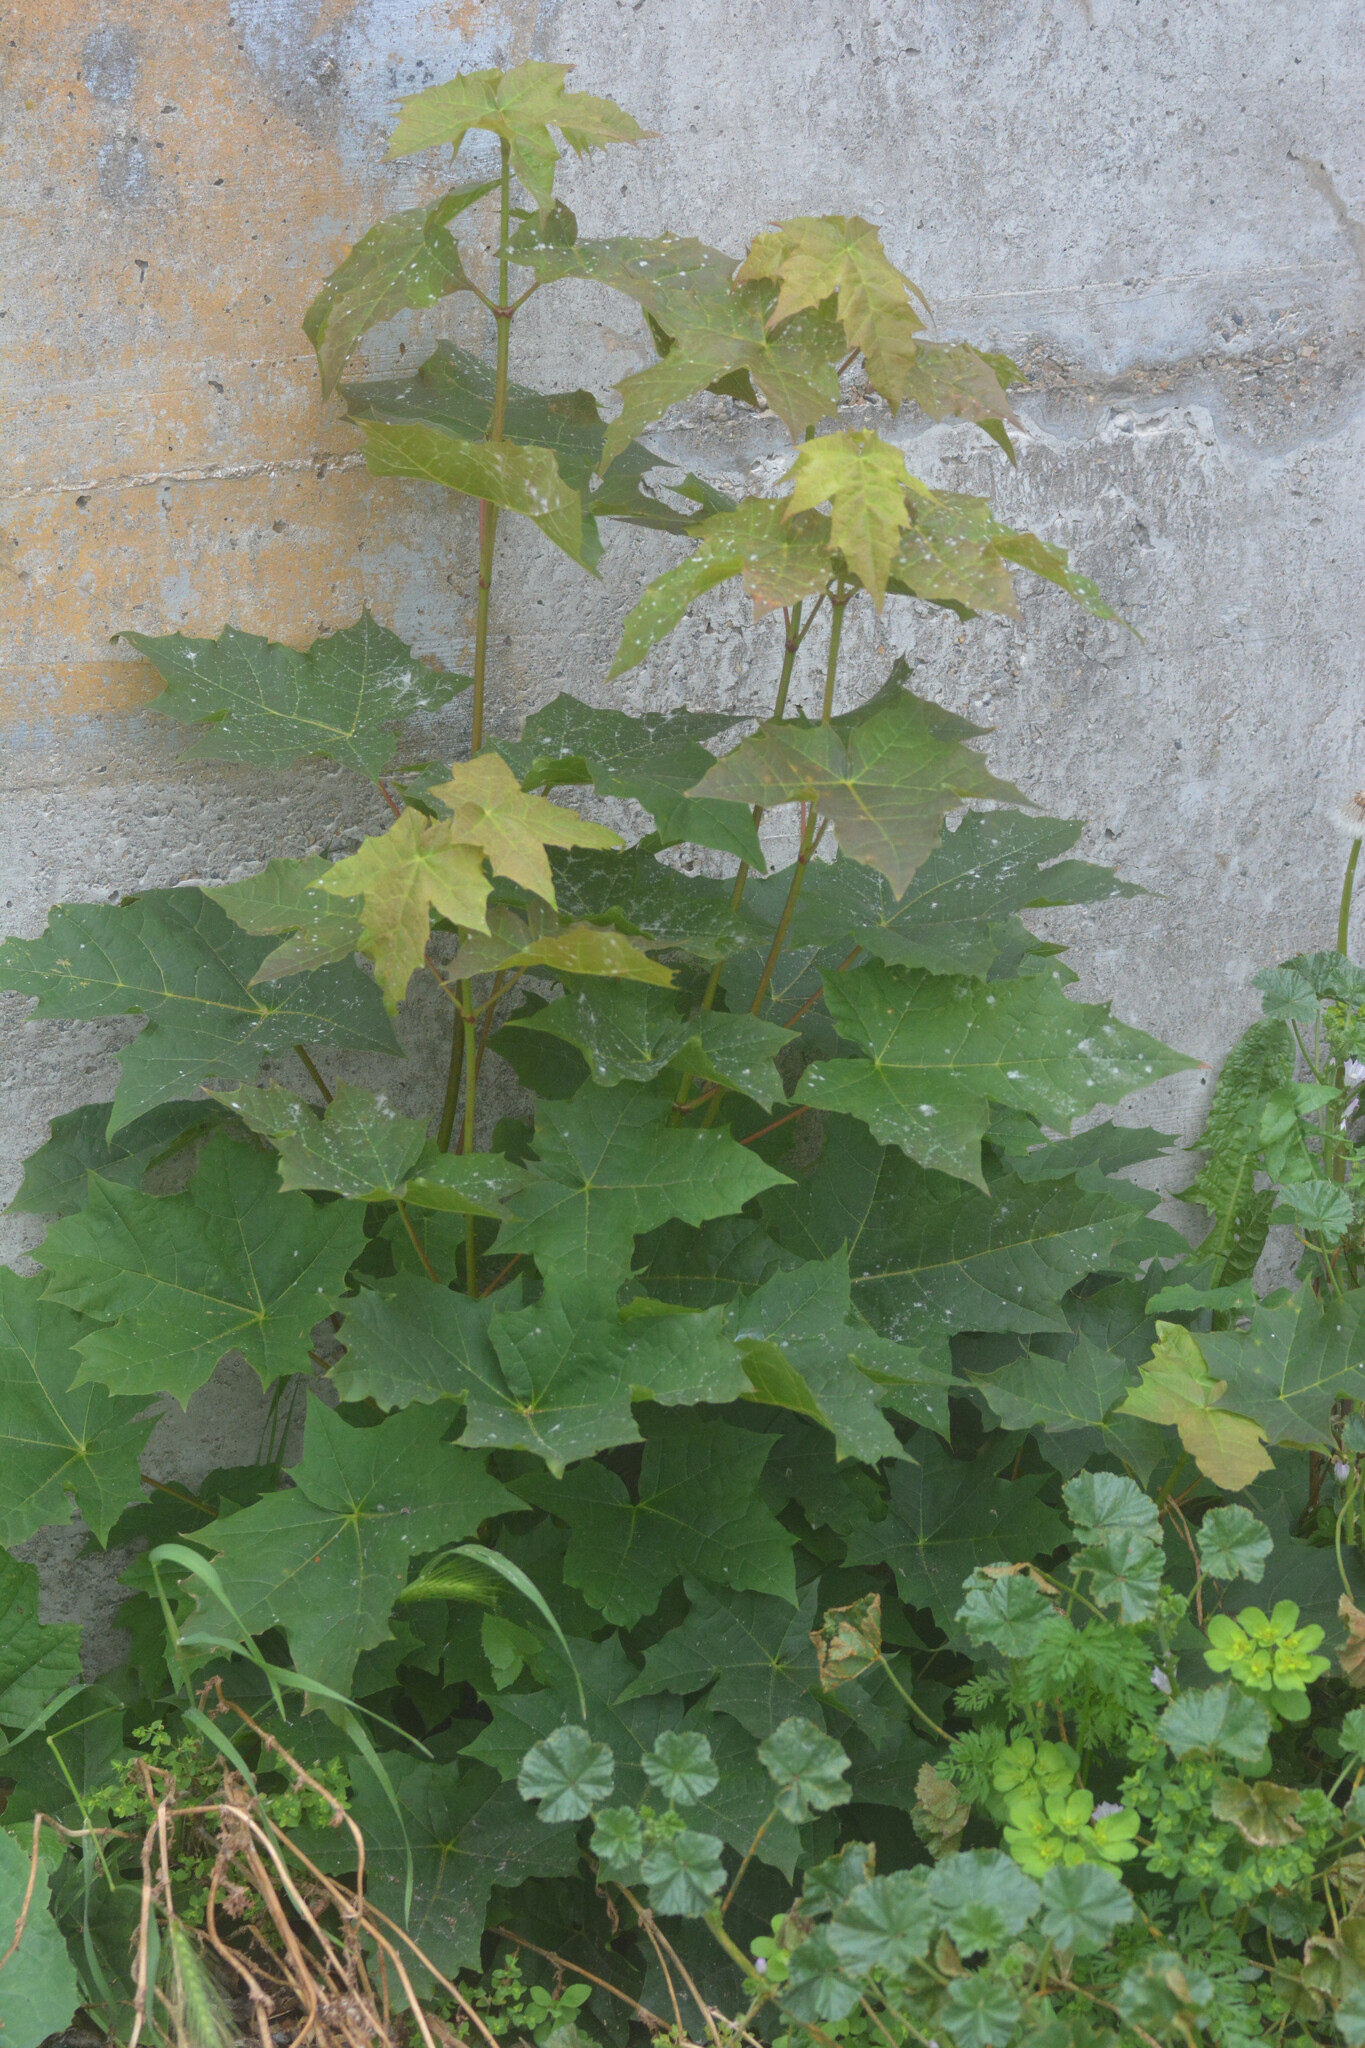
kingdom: Plantae
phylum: Tracheophyta
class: Magnoliopsida
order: Sapindales
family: Sapindaceae
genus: Acer
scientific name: Acer platanoides
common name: Norway maple
